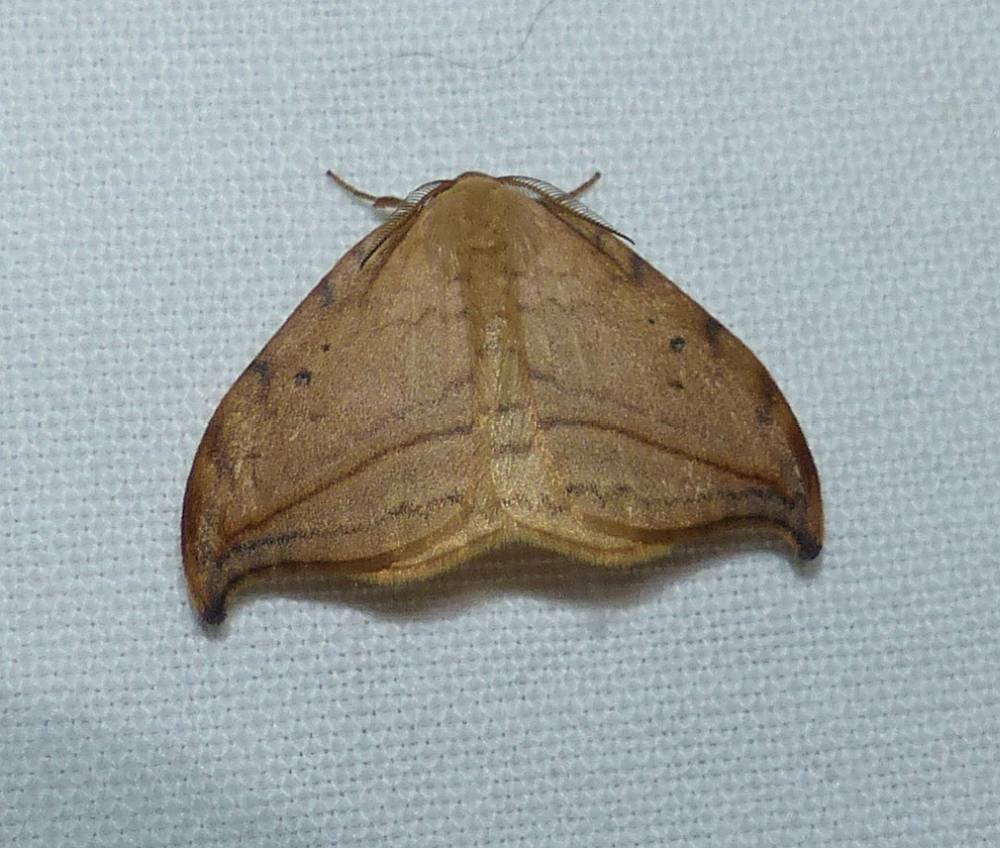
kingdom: Animalia
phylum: Arthropoda
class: Insecta
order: Lepidoptera
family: Drepanidae
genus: Drepana
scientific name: Drepana arcuata
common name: Arched hooktip moth
